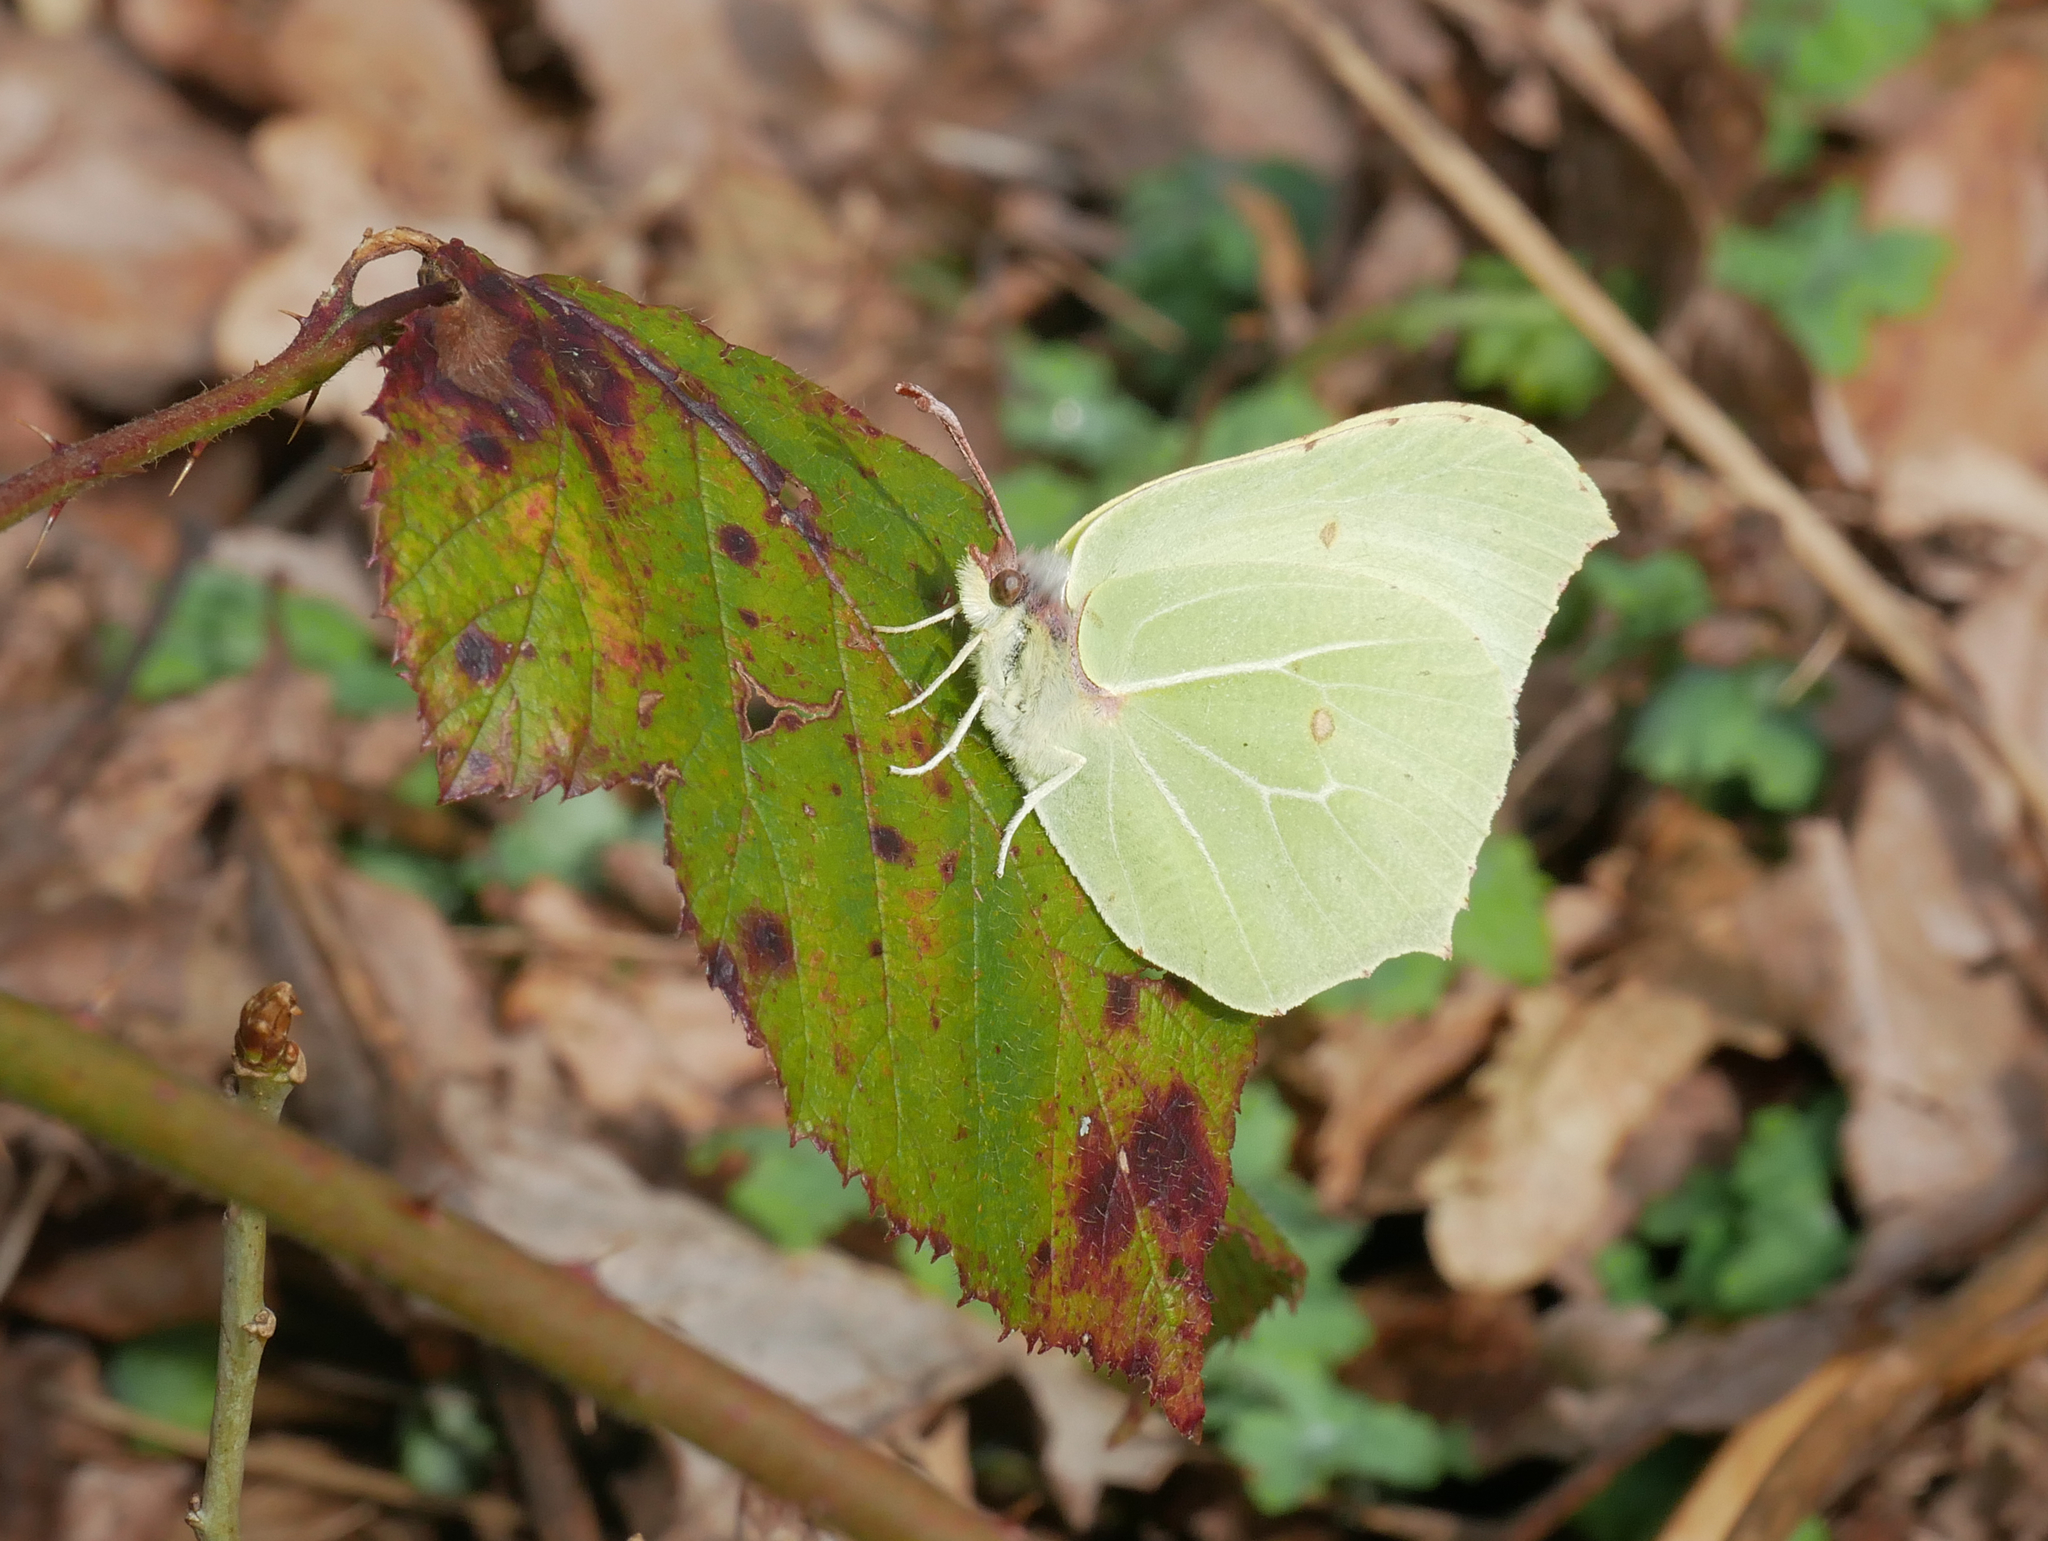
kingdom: Animalia
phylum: Arthropoda
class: Insecta
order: Lepidoptera
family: Pieridae
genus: Gonepteryx
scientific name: Gonepteryx rhamni
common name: Brimstone
